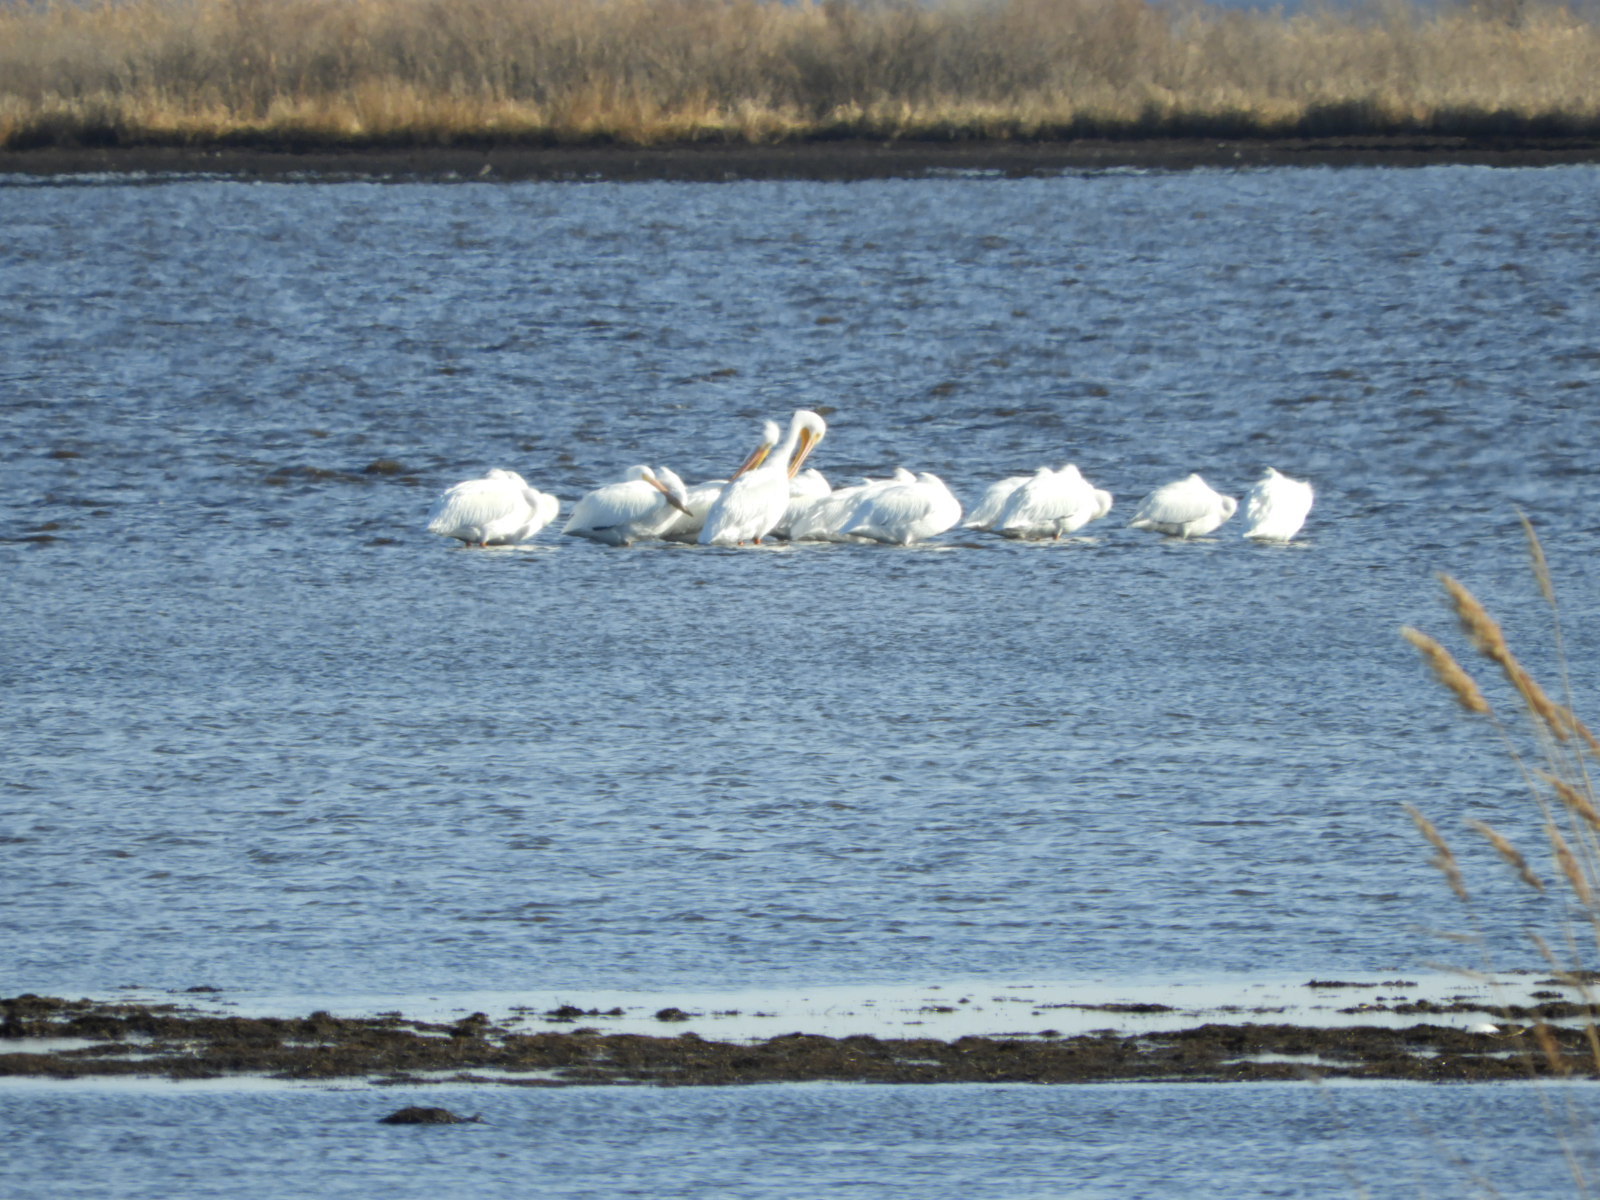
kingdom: Animalia
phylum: Chordata
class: Aves
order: Pelecaniformes
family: Pelecanidae
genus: Pelecanus
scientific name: Pelecanus erythrorhynchos
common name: American white pelican
